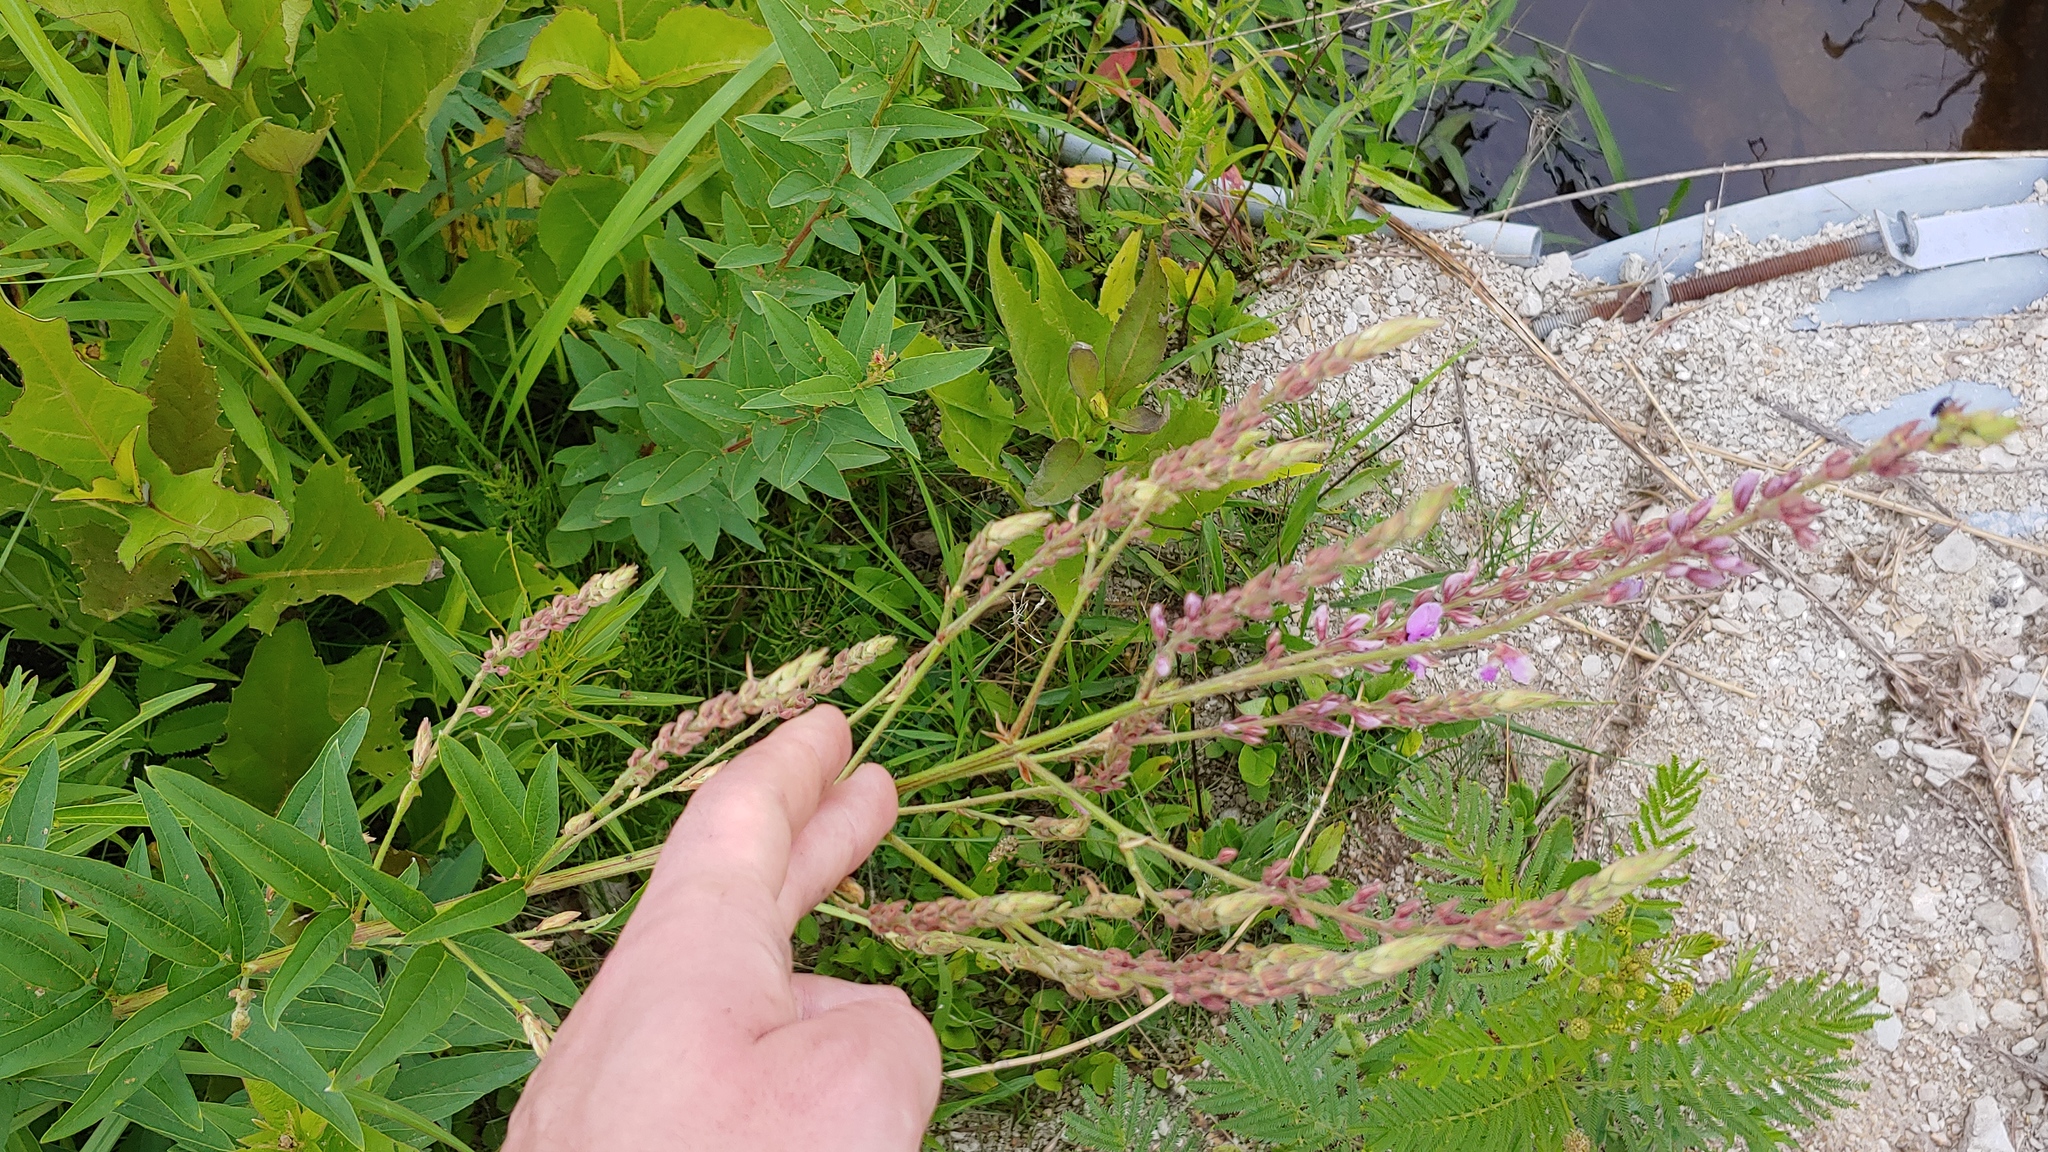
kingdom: Plantae
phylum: Tracheophyta
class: Magnoliopsida
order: Fabales
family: Fabaceae
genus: Desmodium
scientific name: Desmodium canadense
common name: Canada tick-trefoil
